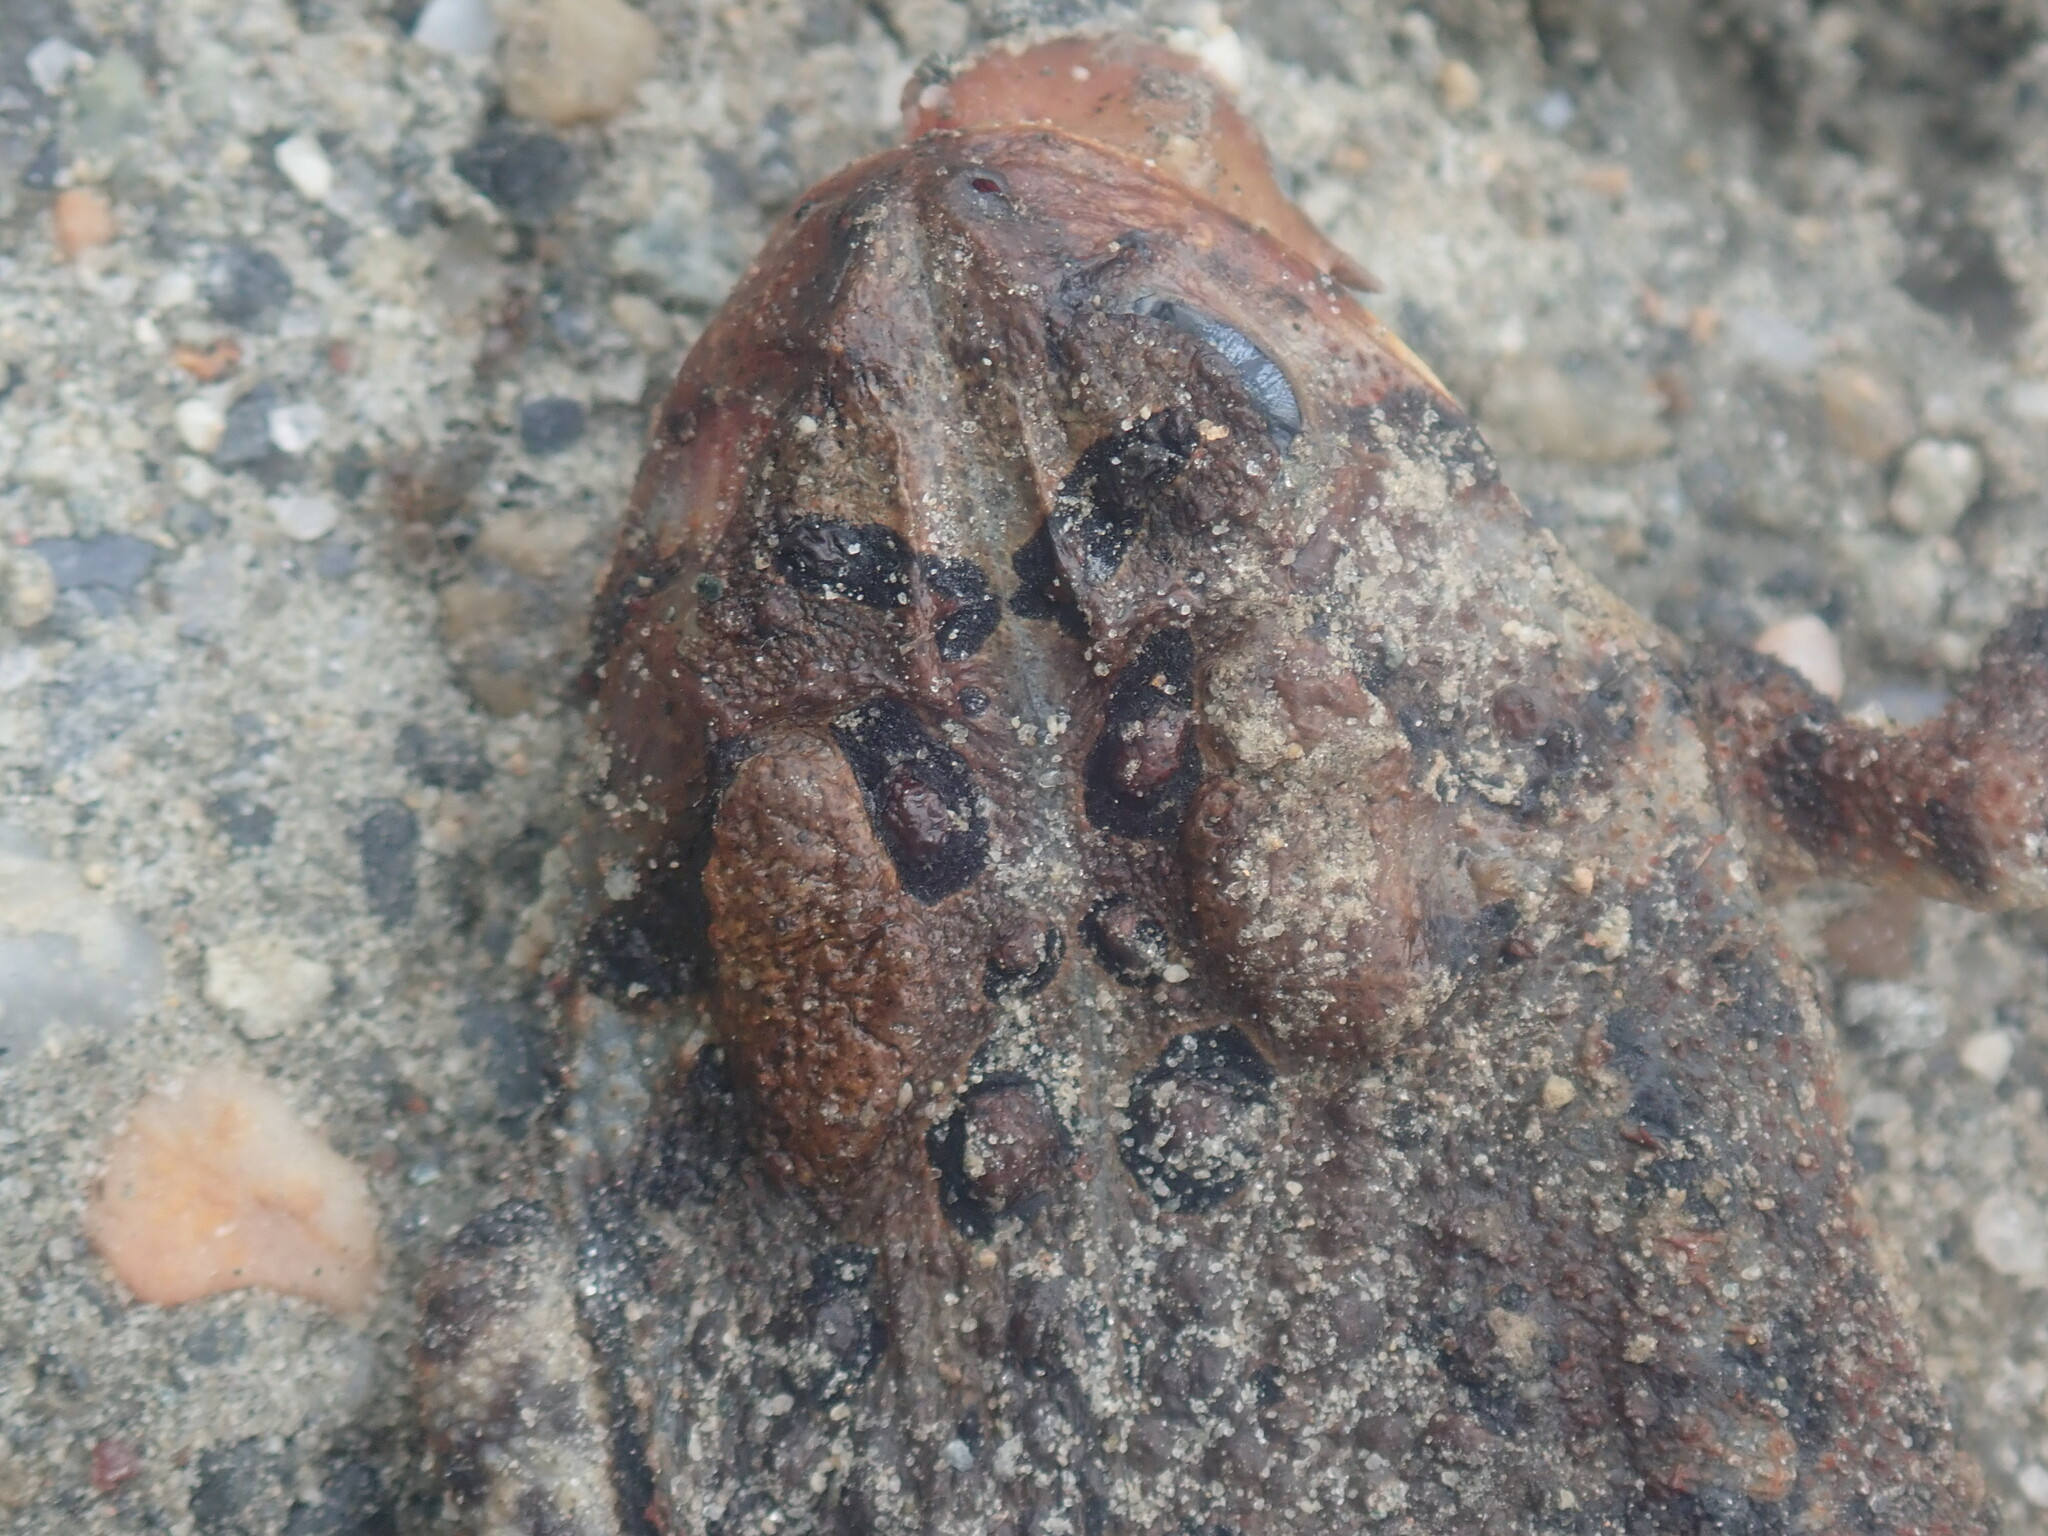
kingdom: Animalia
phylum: Chordata
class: Amphibia
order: Anura
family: Bufonidae
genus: Anaxyrus
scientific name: Anaxyrus americanus
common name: American toad
